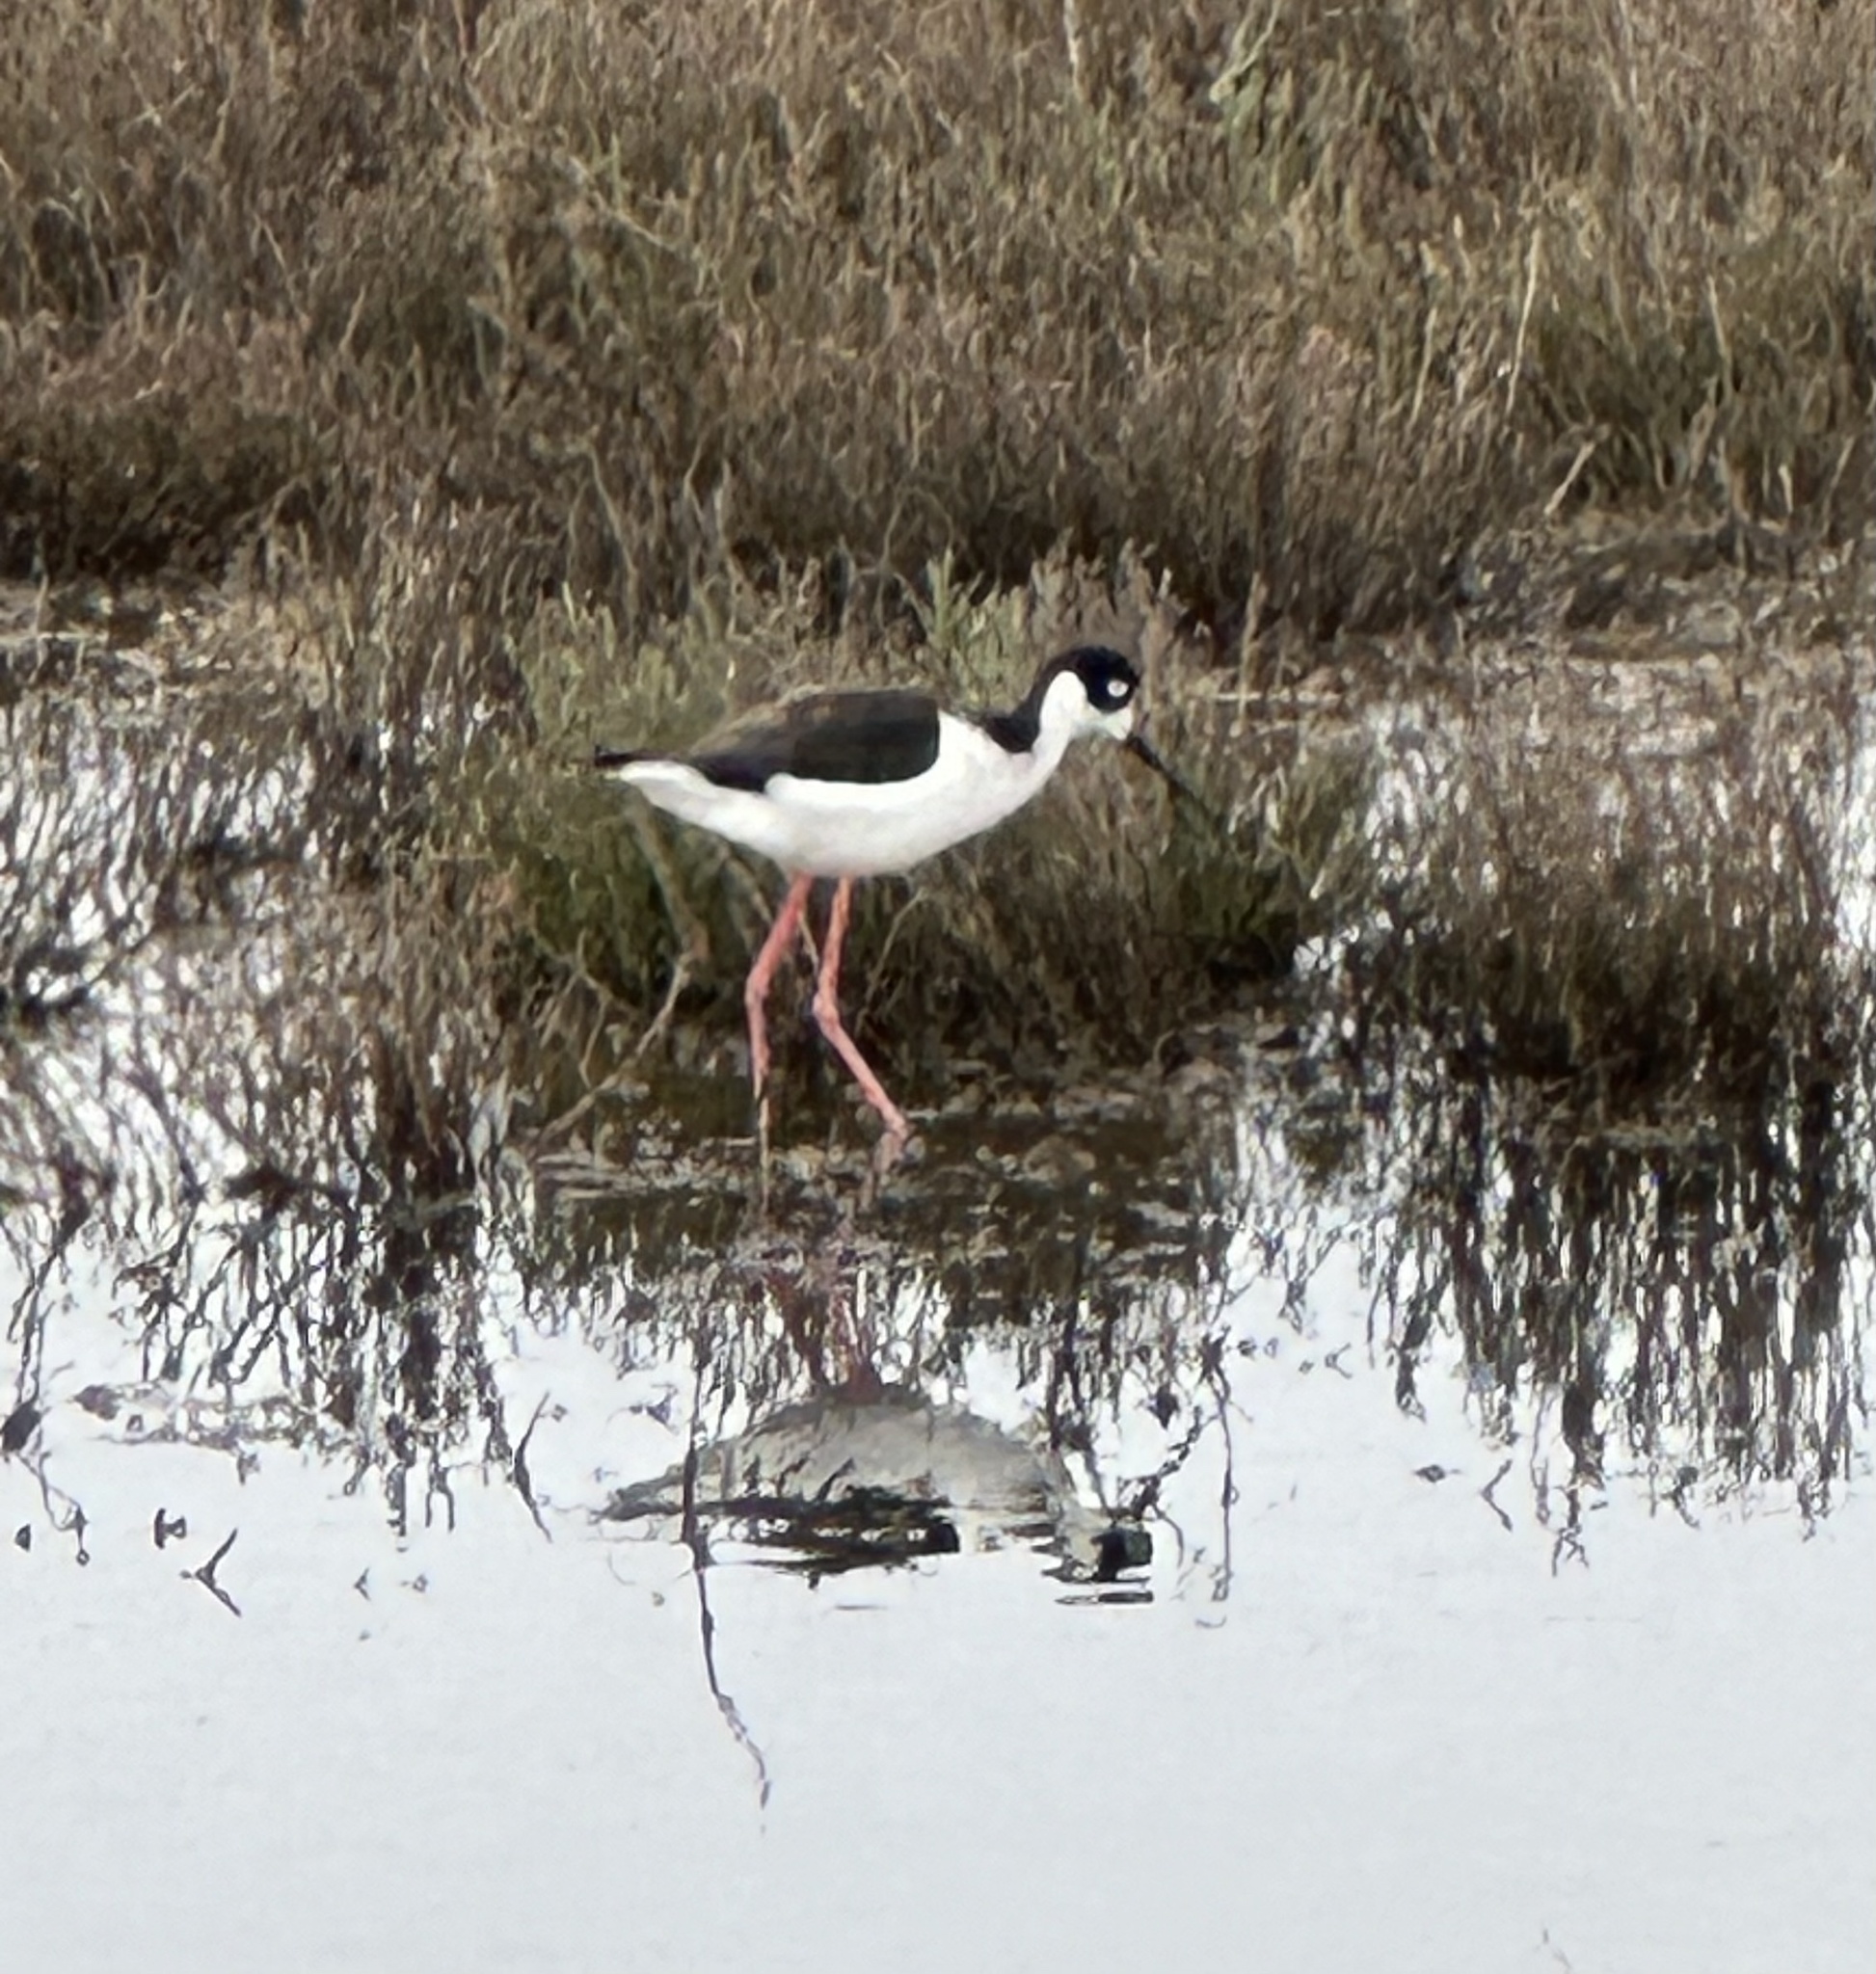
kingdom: Animalia
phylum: Chordata
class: Aves
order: Charadriiformes
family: Recurvirostridae
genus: Himantopus
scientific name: Himantopus mexicanus
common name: Black-necked stilt
